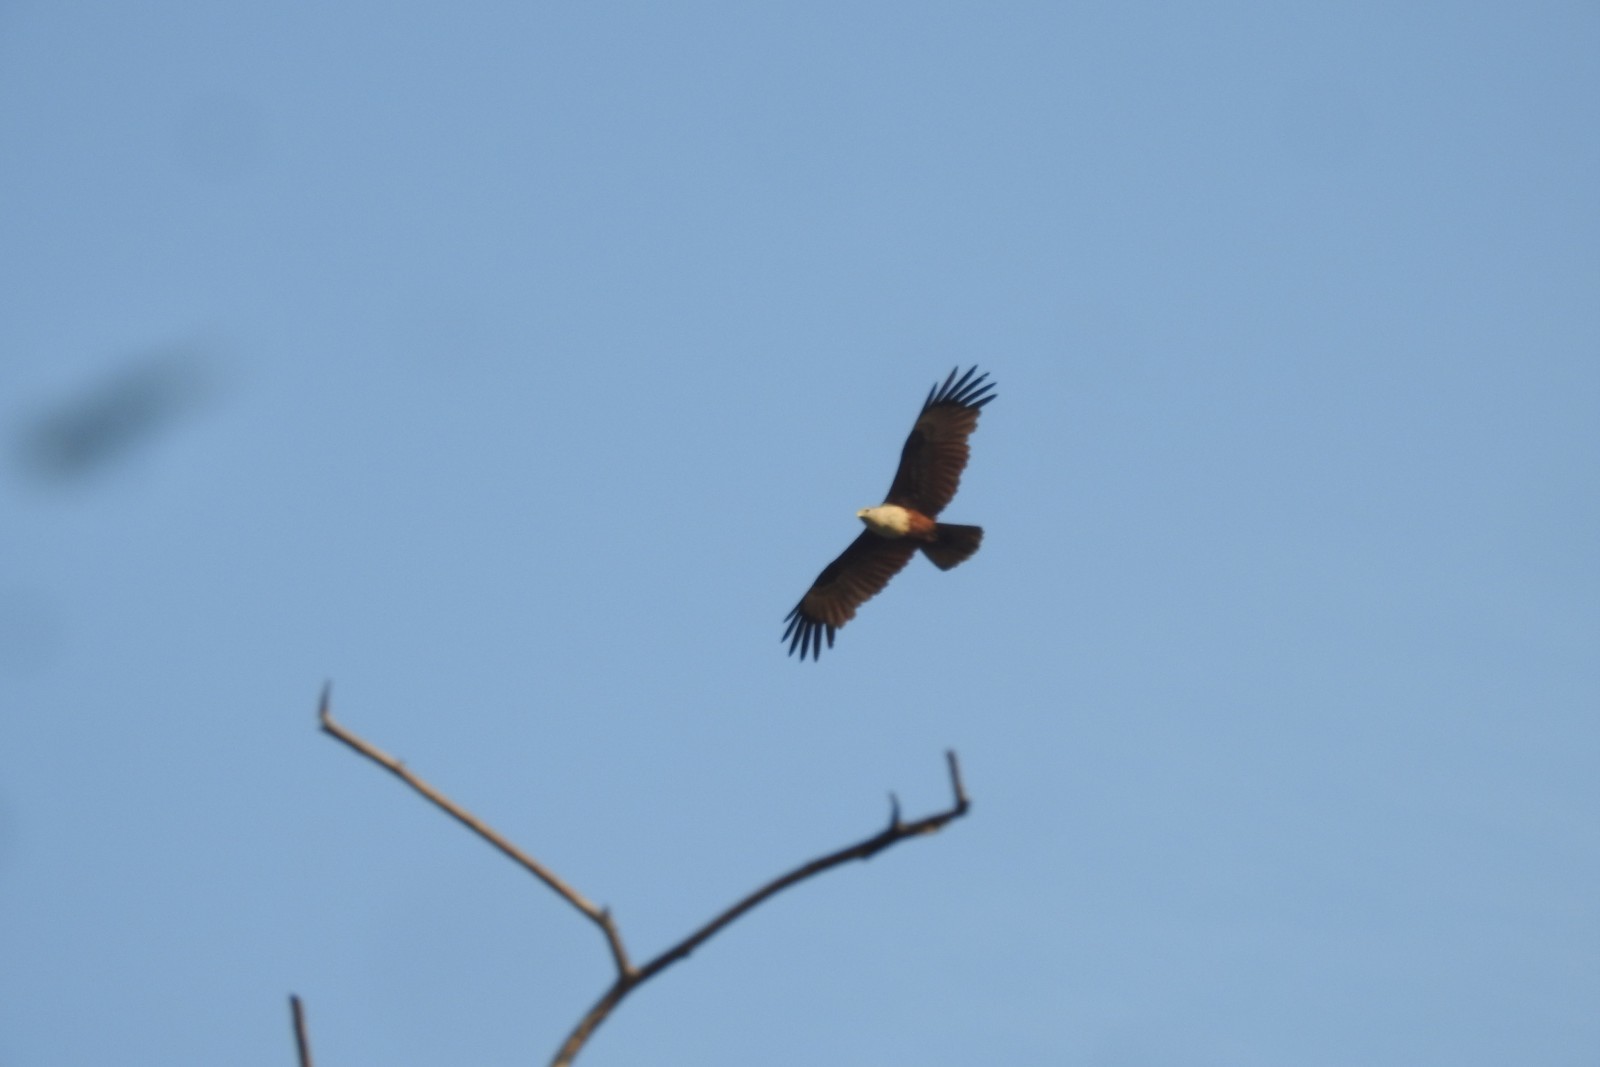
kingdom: Animalia
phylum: Chordata
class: Aves
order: Accipitriformes
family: Accipitridae
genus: Haliastur
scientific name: Haliastur indus
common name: Brahminy kite
